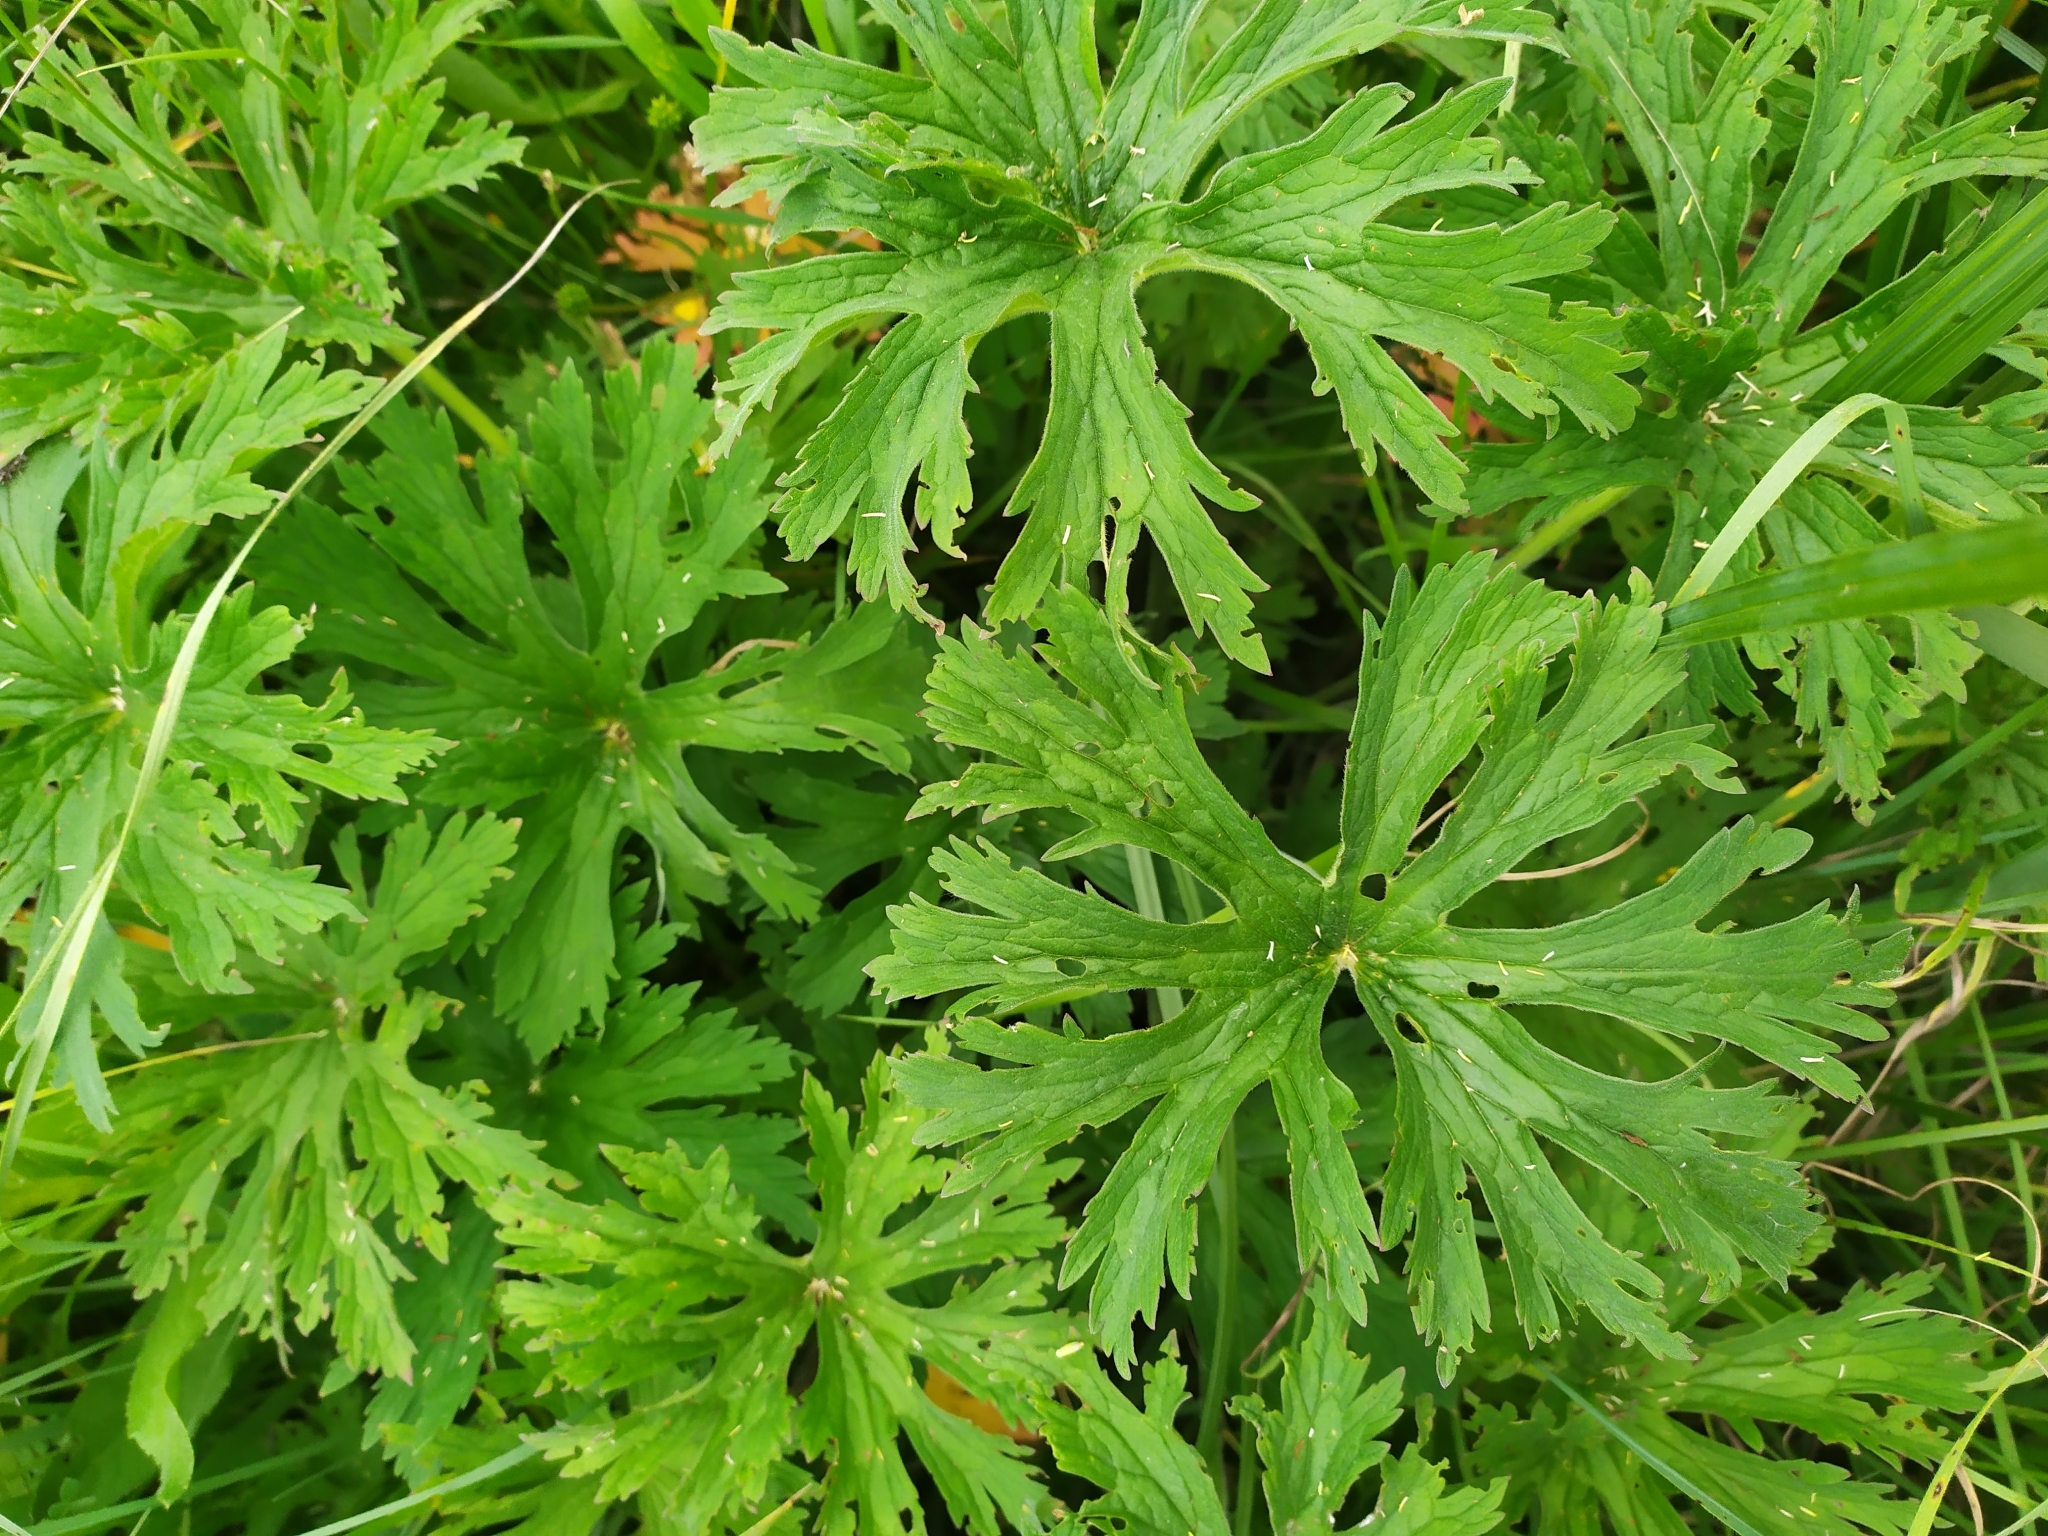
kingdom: Plantae
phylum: Tracheophyta
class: Magnoliopsida
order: Geraniales
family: Geraniaceae
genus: Geranium
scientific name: Geranium pratense
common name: Meadow crane's-bill
